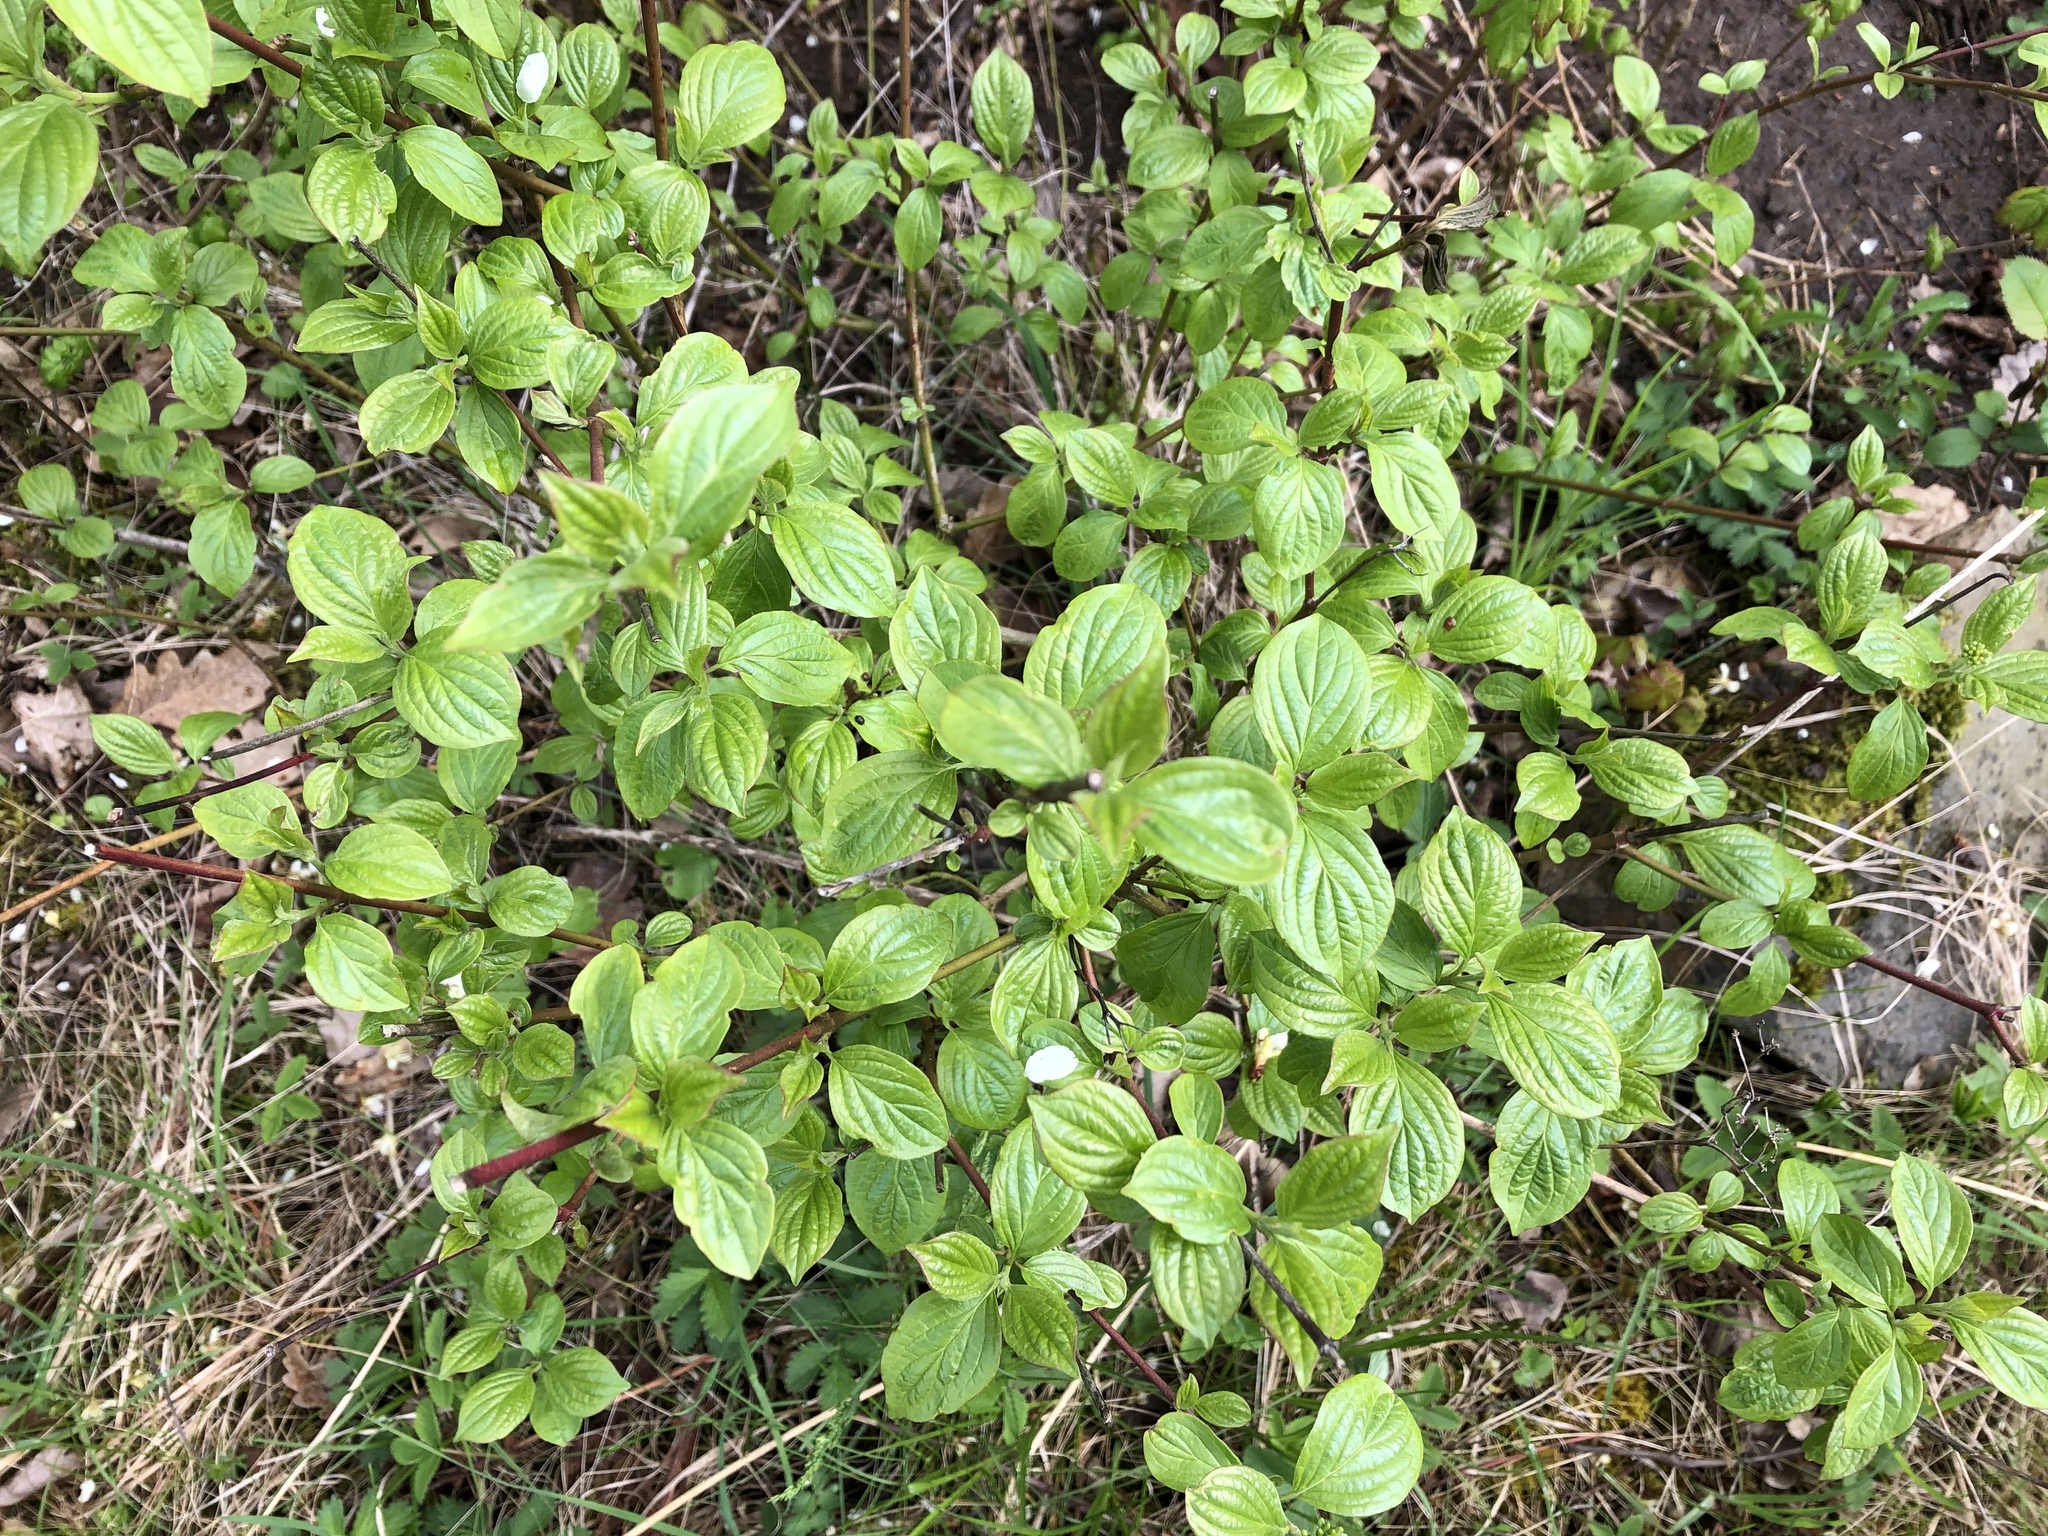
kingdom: Plantae
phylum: Tracheophyta
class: Magnoliopsida
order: Cornales
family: Cornaceae
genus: Cornus
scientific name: Cornus sanguinea
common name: Dogwood
